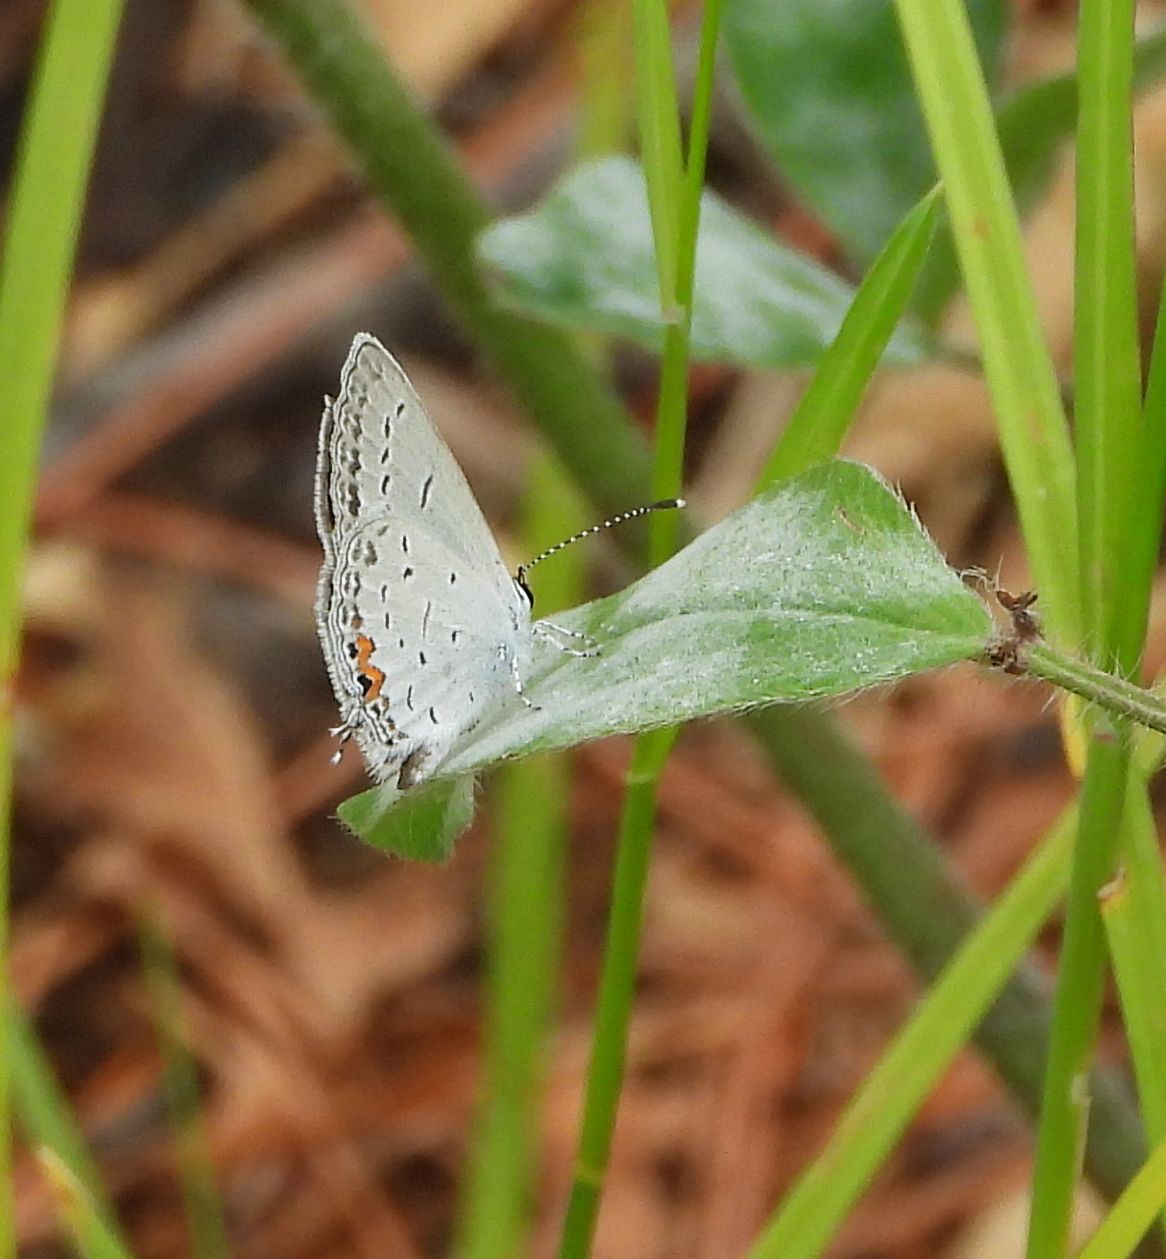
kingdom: Animalia
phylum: Arthropoda
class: Insecta
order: Lepidoptera
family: Lycaenidae
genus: Elkalyce
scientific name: Elkalyce comyntas
